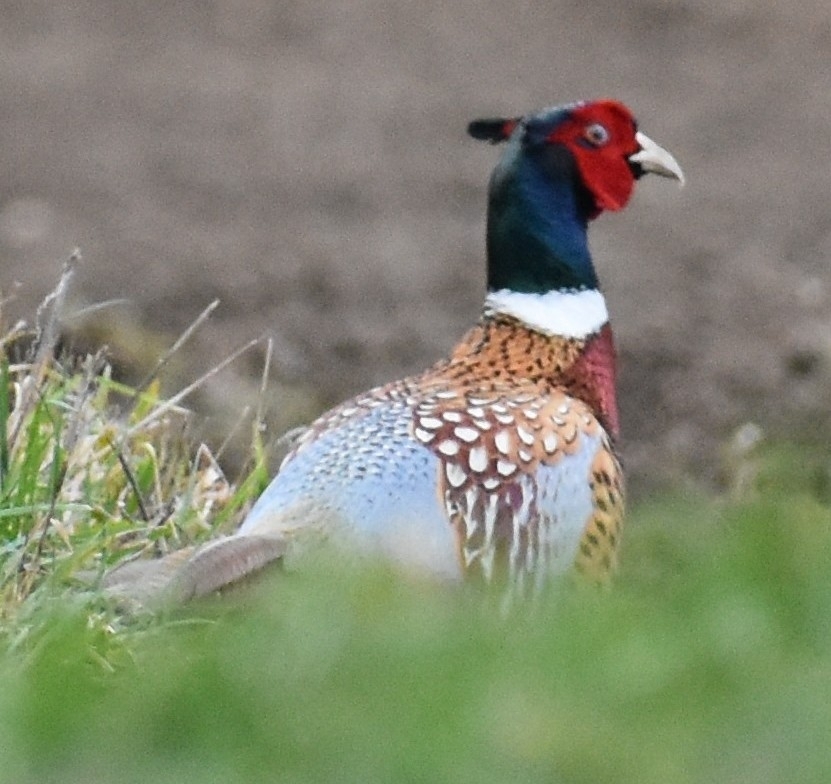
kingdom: Animalia
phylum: Chordata
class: Aves
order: Galliformes
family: Phasianidae
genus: Phasianus
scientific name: Phasianus colchicus
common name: Common pheasant
